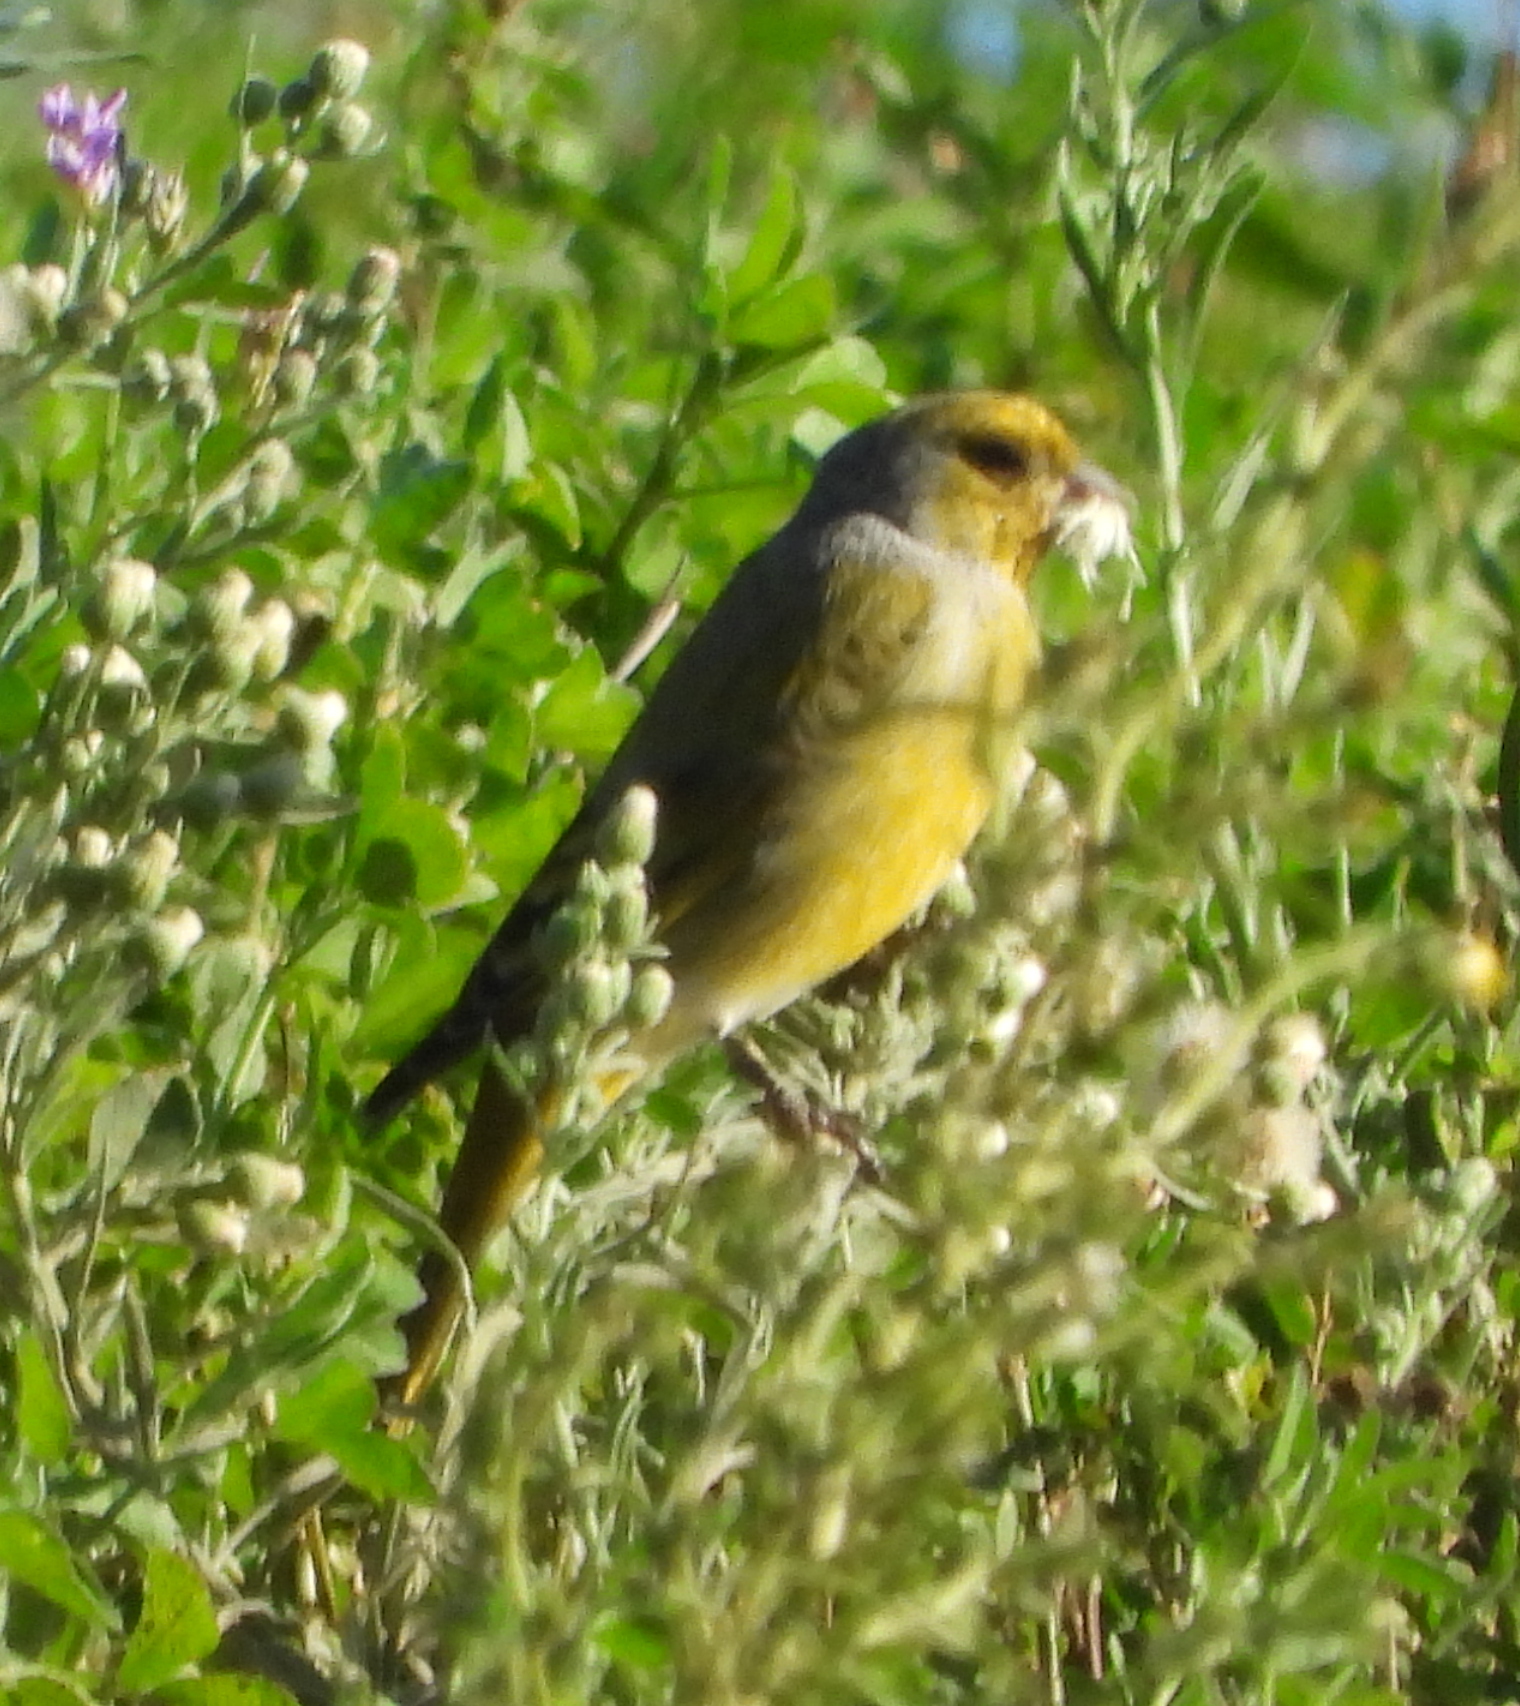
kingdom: Animalia
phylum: Chordata
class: Aves
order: Passeriformes
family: Fringillidae
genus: Serinus
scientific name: Serinus canicollis
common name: Cape canary
